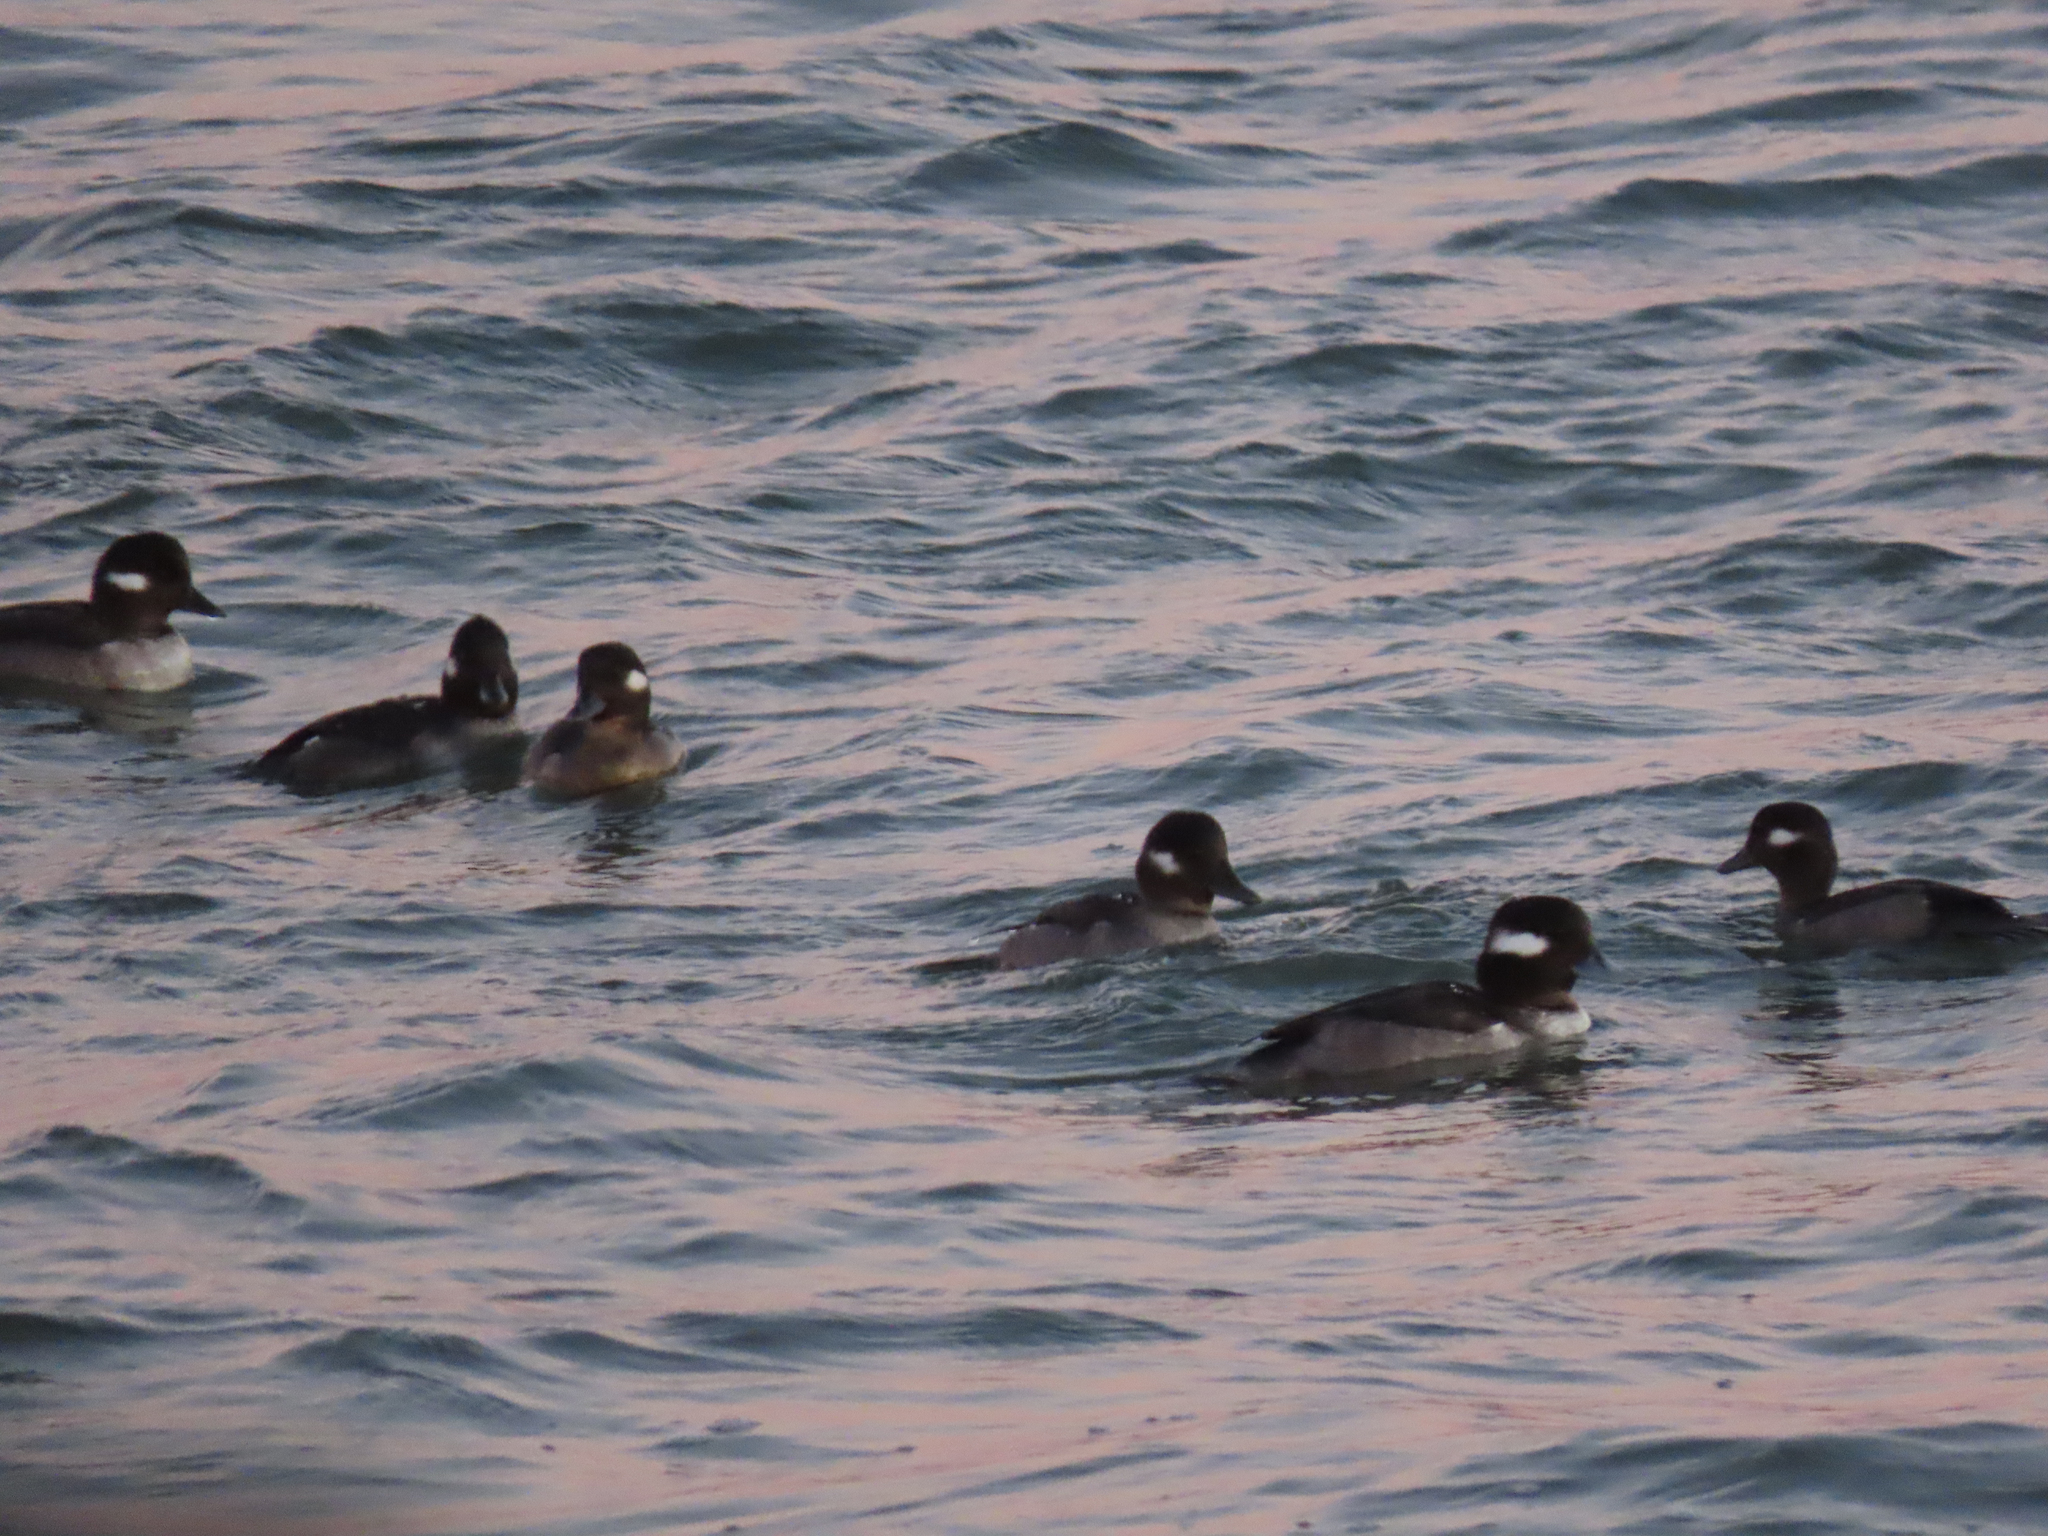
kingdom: Animalia
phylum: Chordata
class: Aves
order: Anseriformes
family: Anatidae
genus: Bucephala
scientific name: Bucephala albeola
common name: Bufflehead
